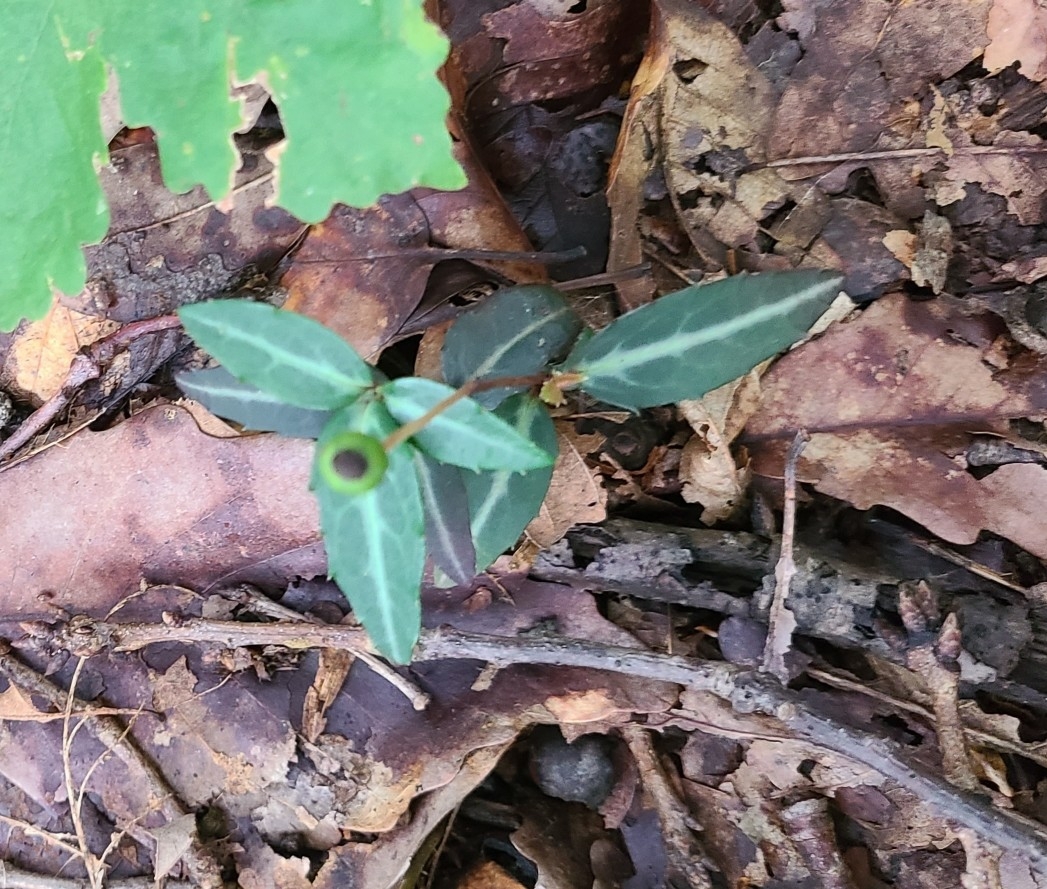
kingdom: Plantae
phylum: Tracheophyta
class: Magnoliopsida
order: Ericales
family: Ericaceae
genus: Chimaphila
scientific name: Chimaphila maculata
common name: Spotted pipsissewa
